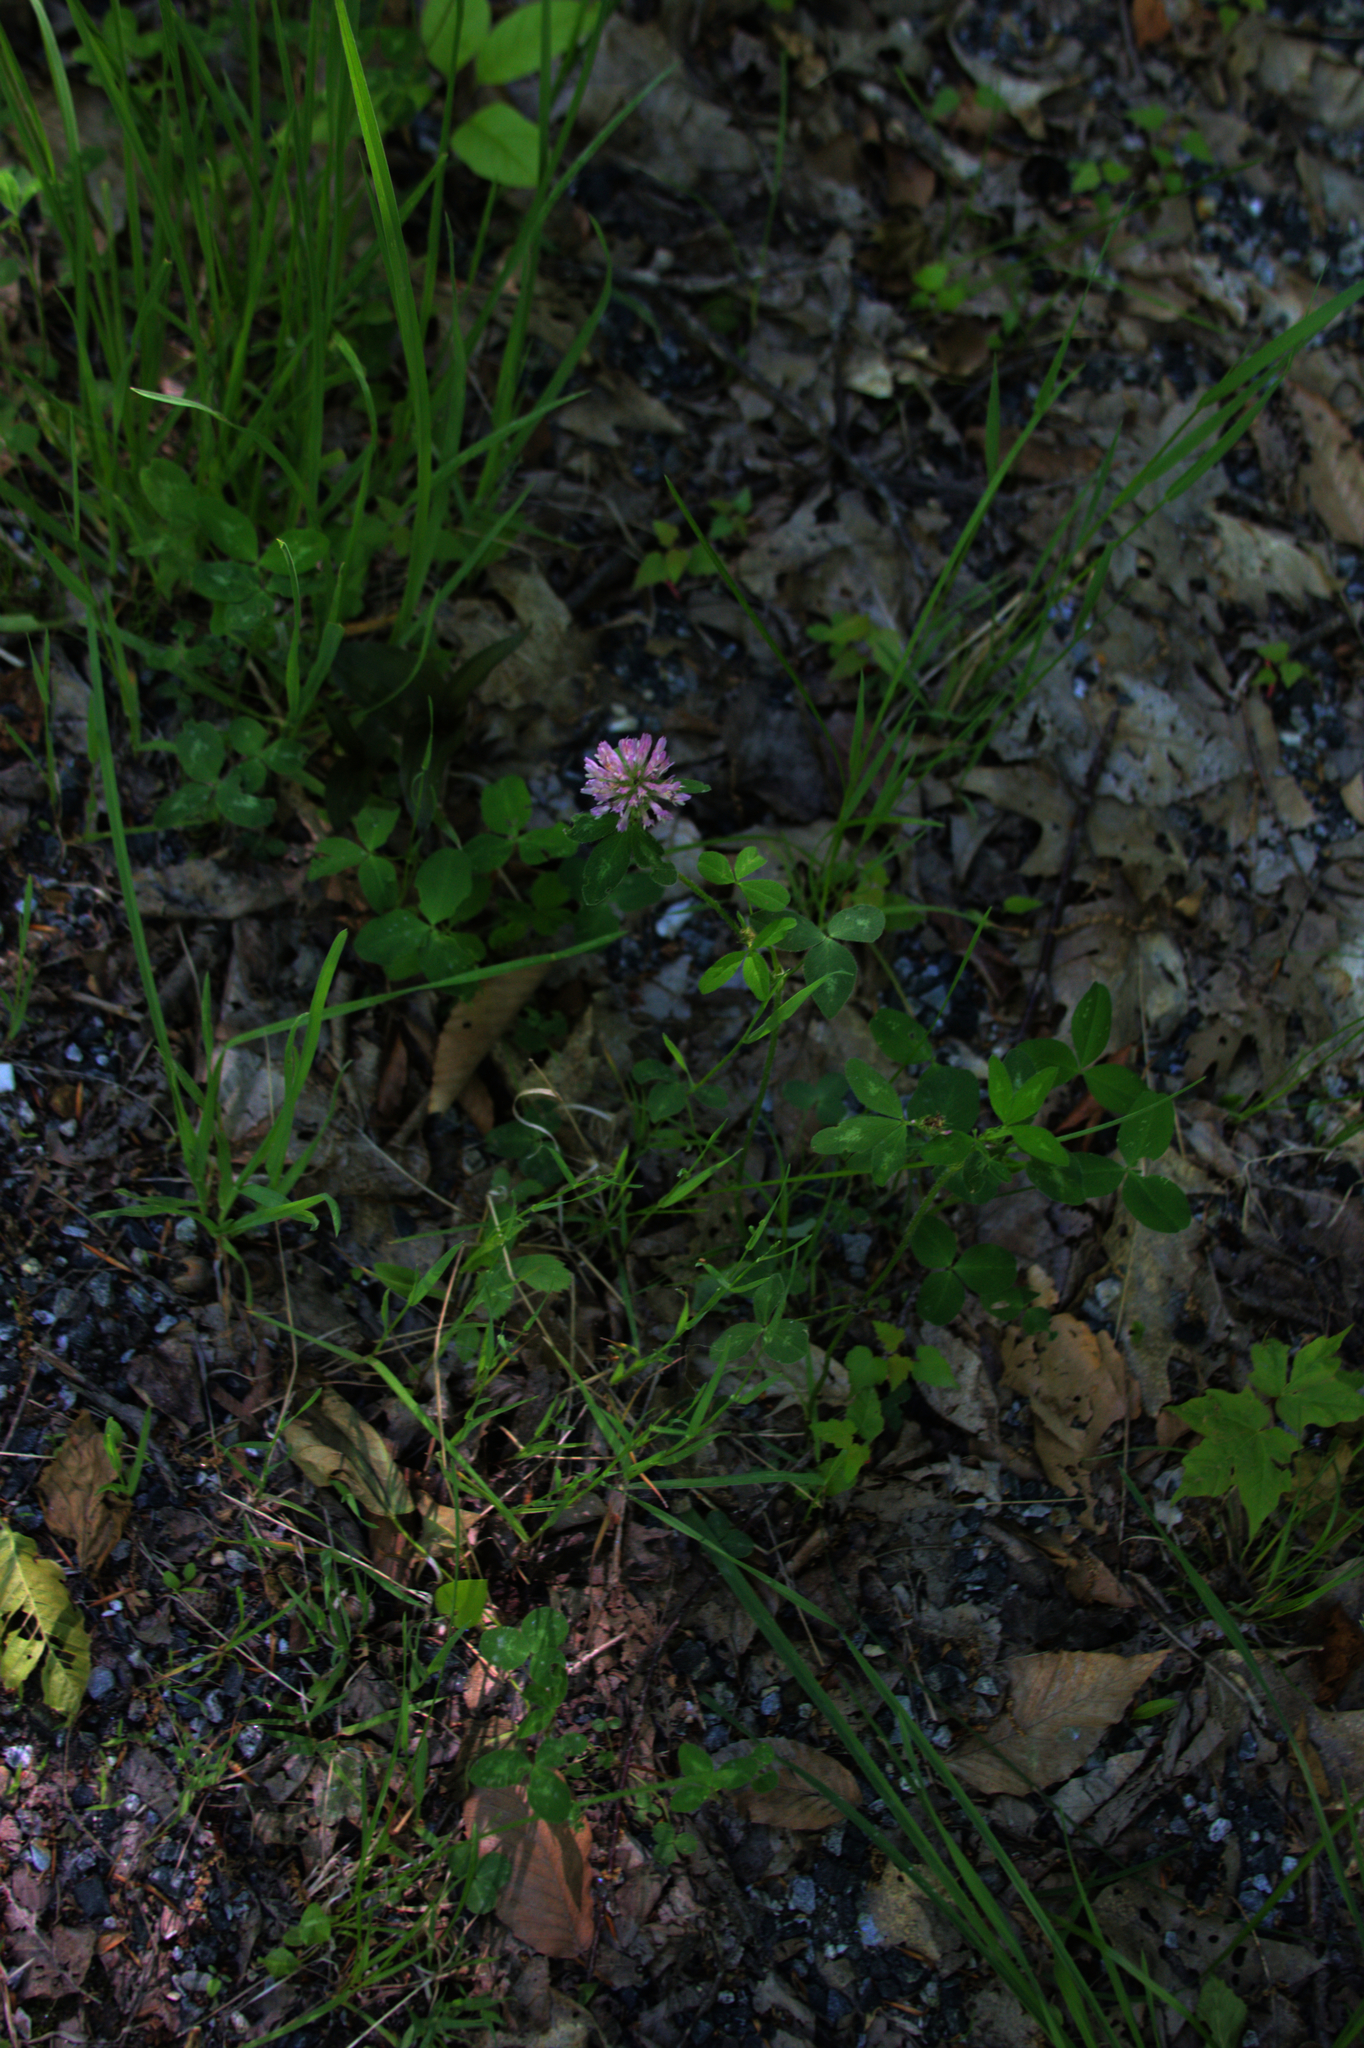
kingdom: Plantae
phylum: Tracheophyta
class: Magnoliopsida
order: Fabales
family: Fabaceae
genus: Trifolium
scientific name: Trifolium pratense
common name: Red clover
